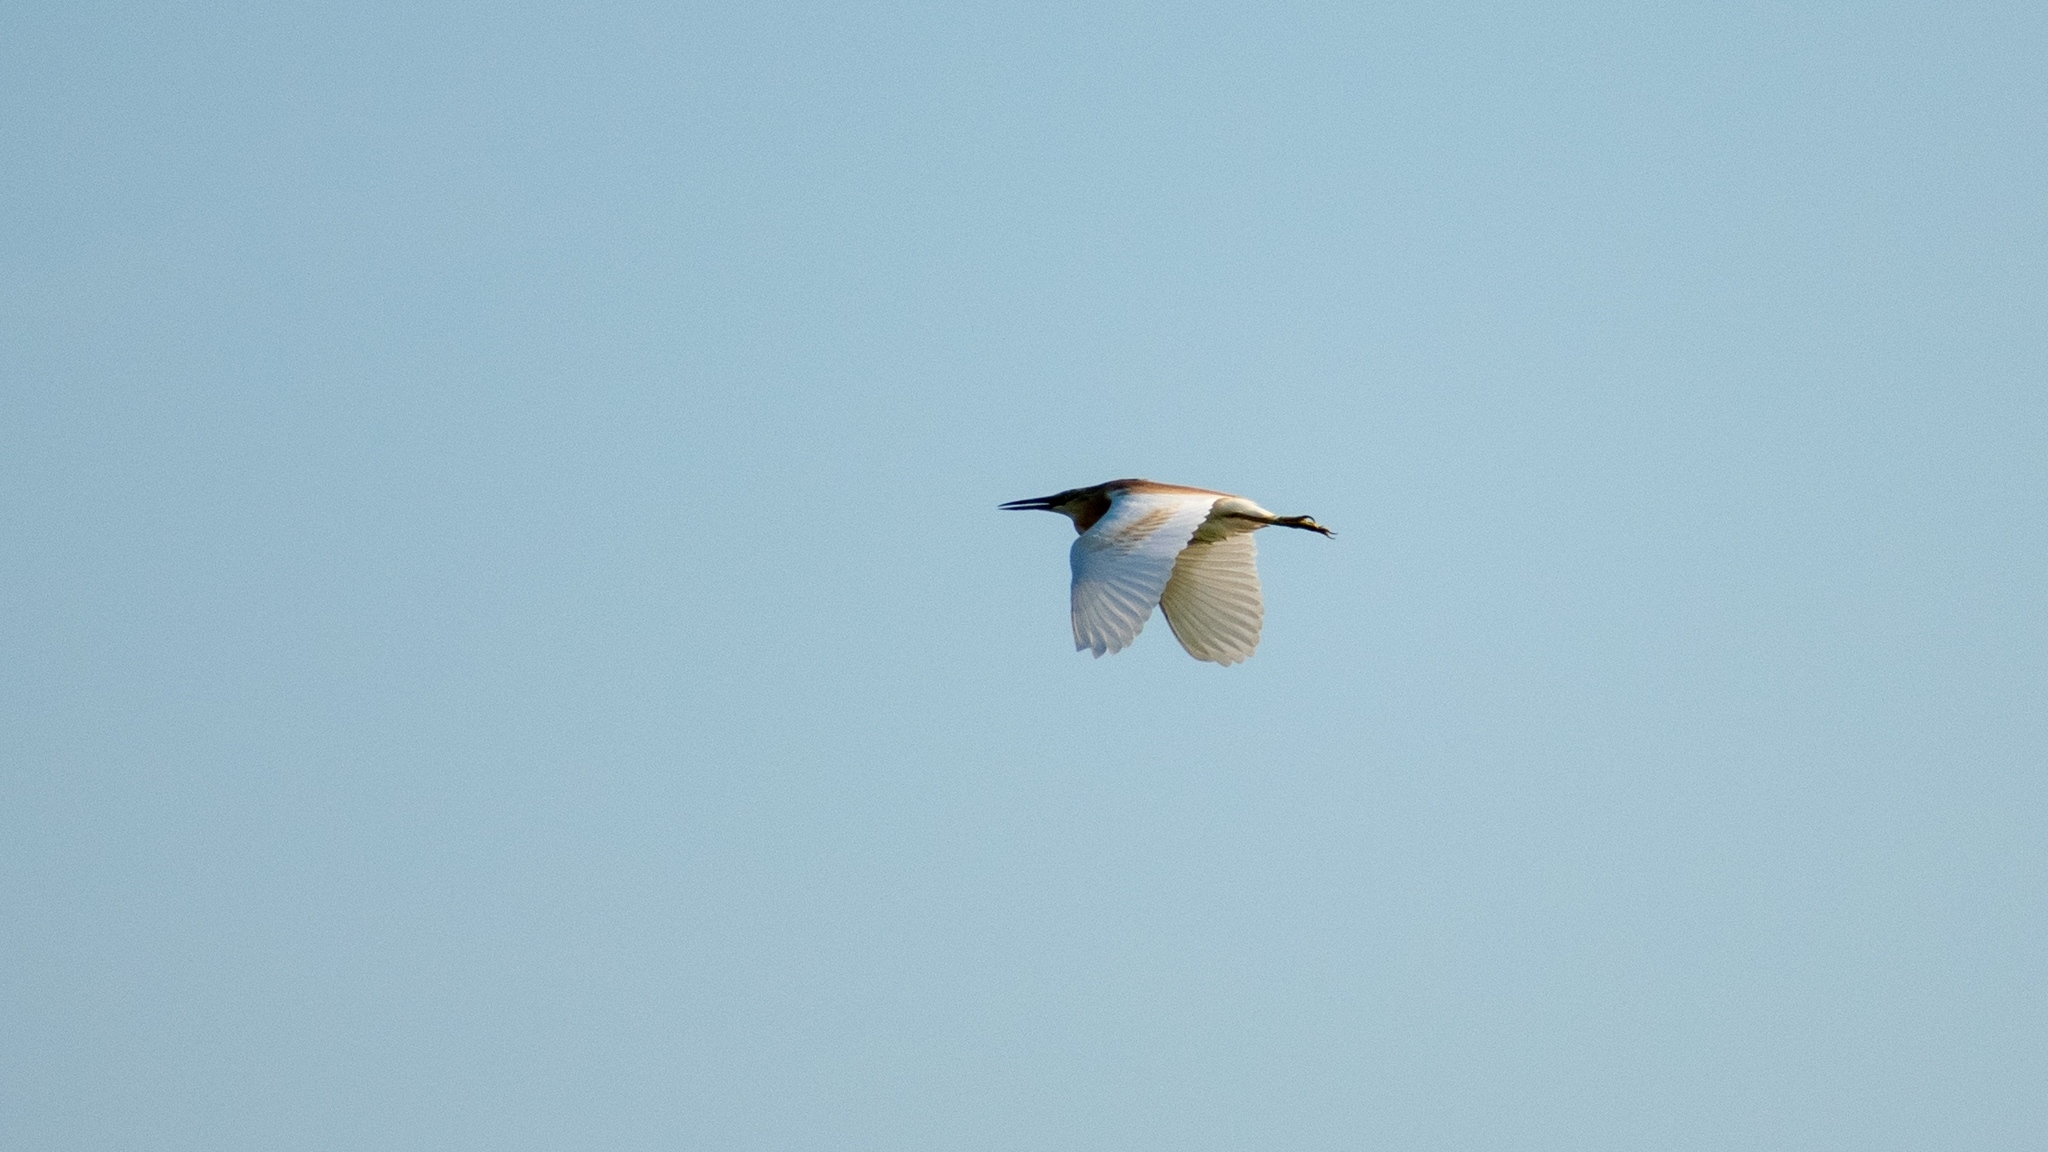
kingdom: Animalia
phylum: Chordata
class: Aves
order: Pelecaniformes
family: Ardeidae
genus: Ardeola
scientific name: Ardeola ralloides
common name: Squacco heron
